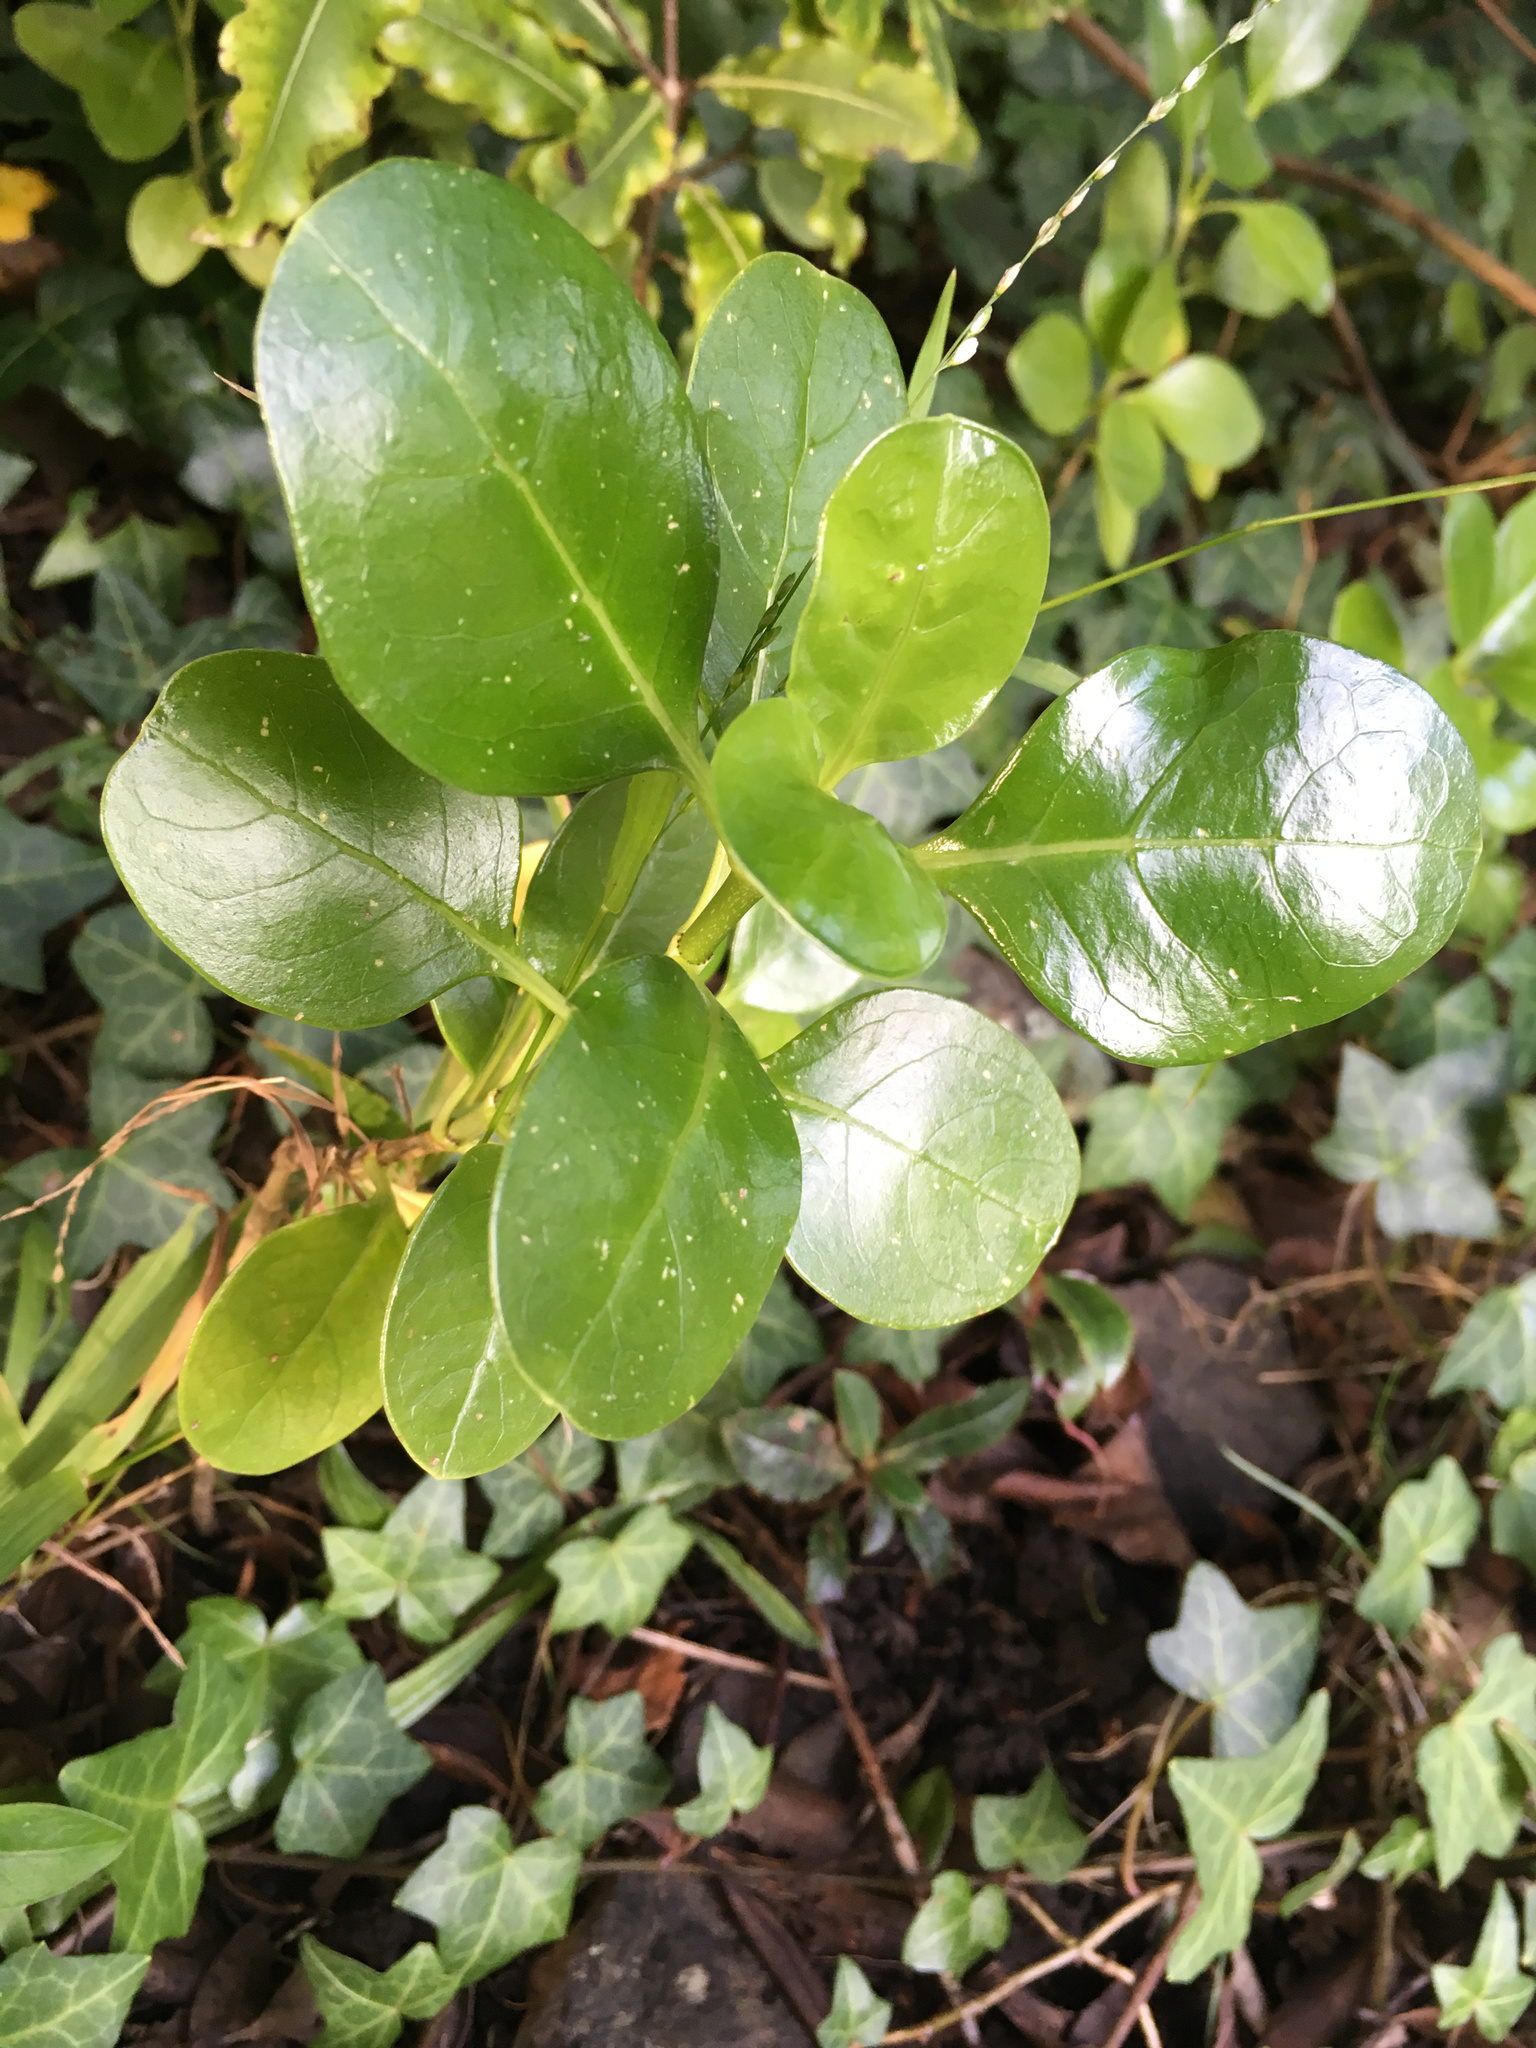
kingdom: Plantae
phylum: Tracheophyta
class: Magnoliopsida
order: Gentianales
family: Rubiaceae
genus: Coprosma
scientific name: Coprosma repens
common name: Tree bedstraw
